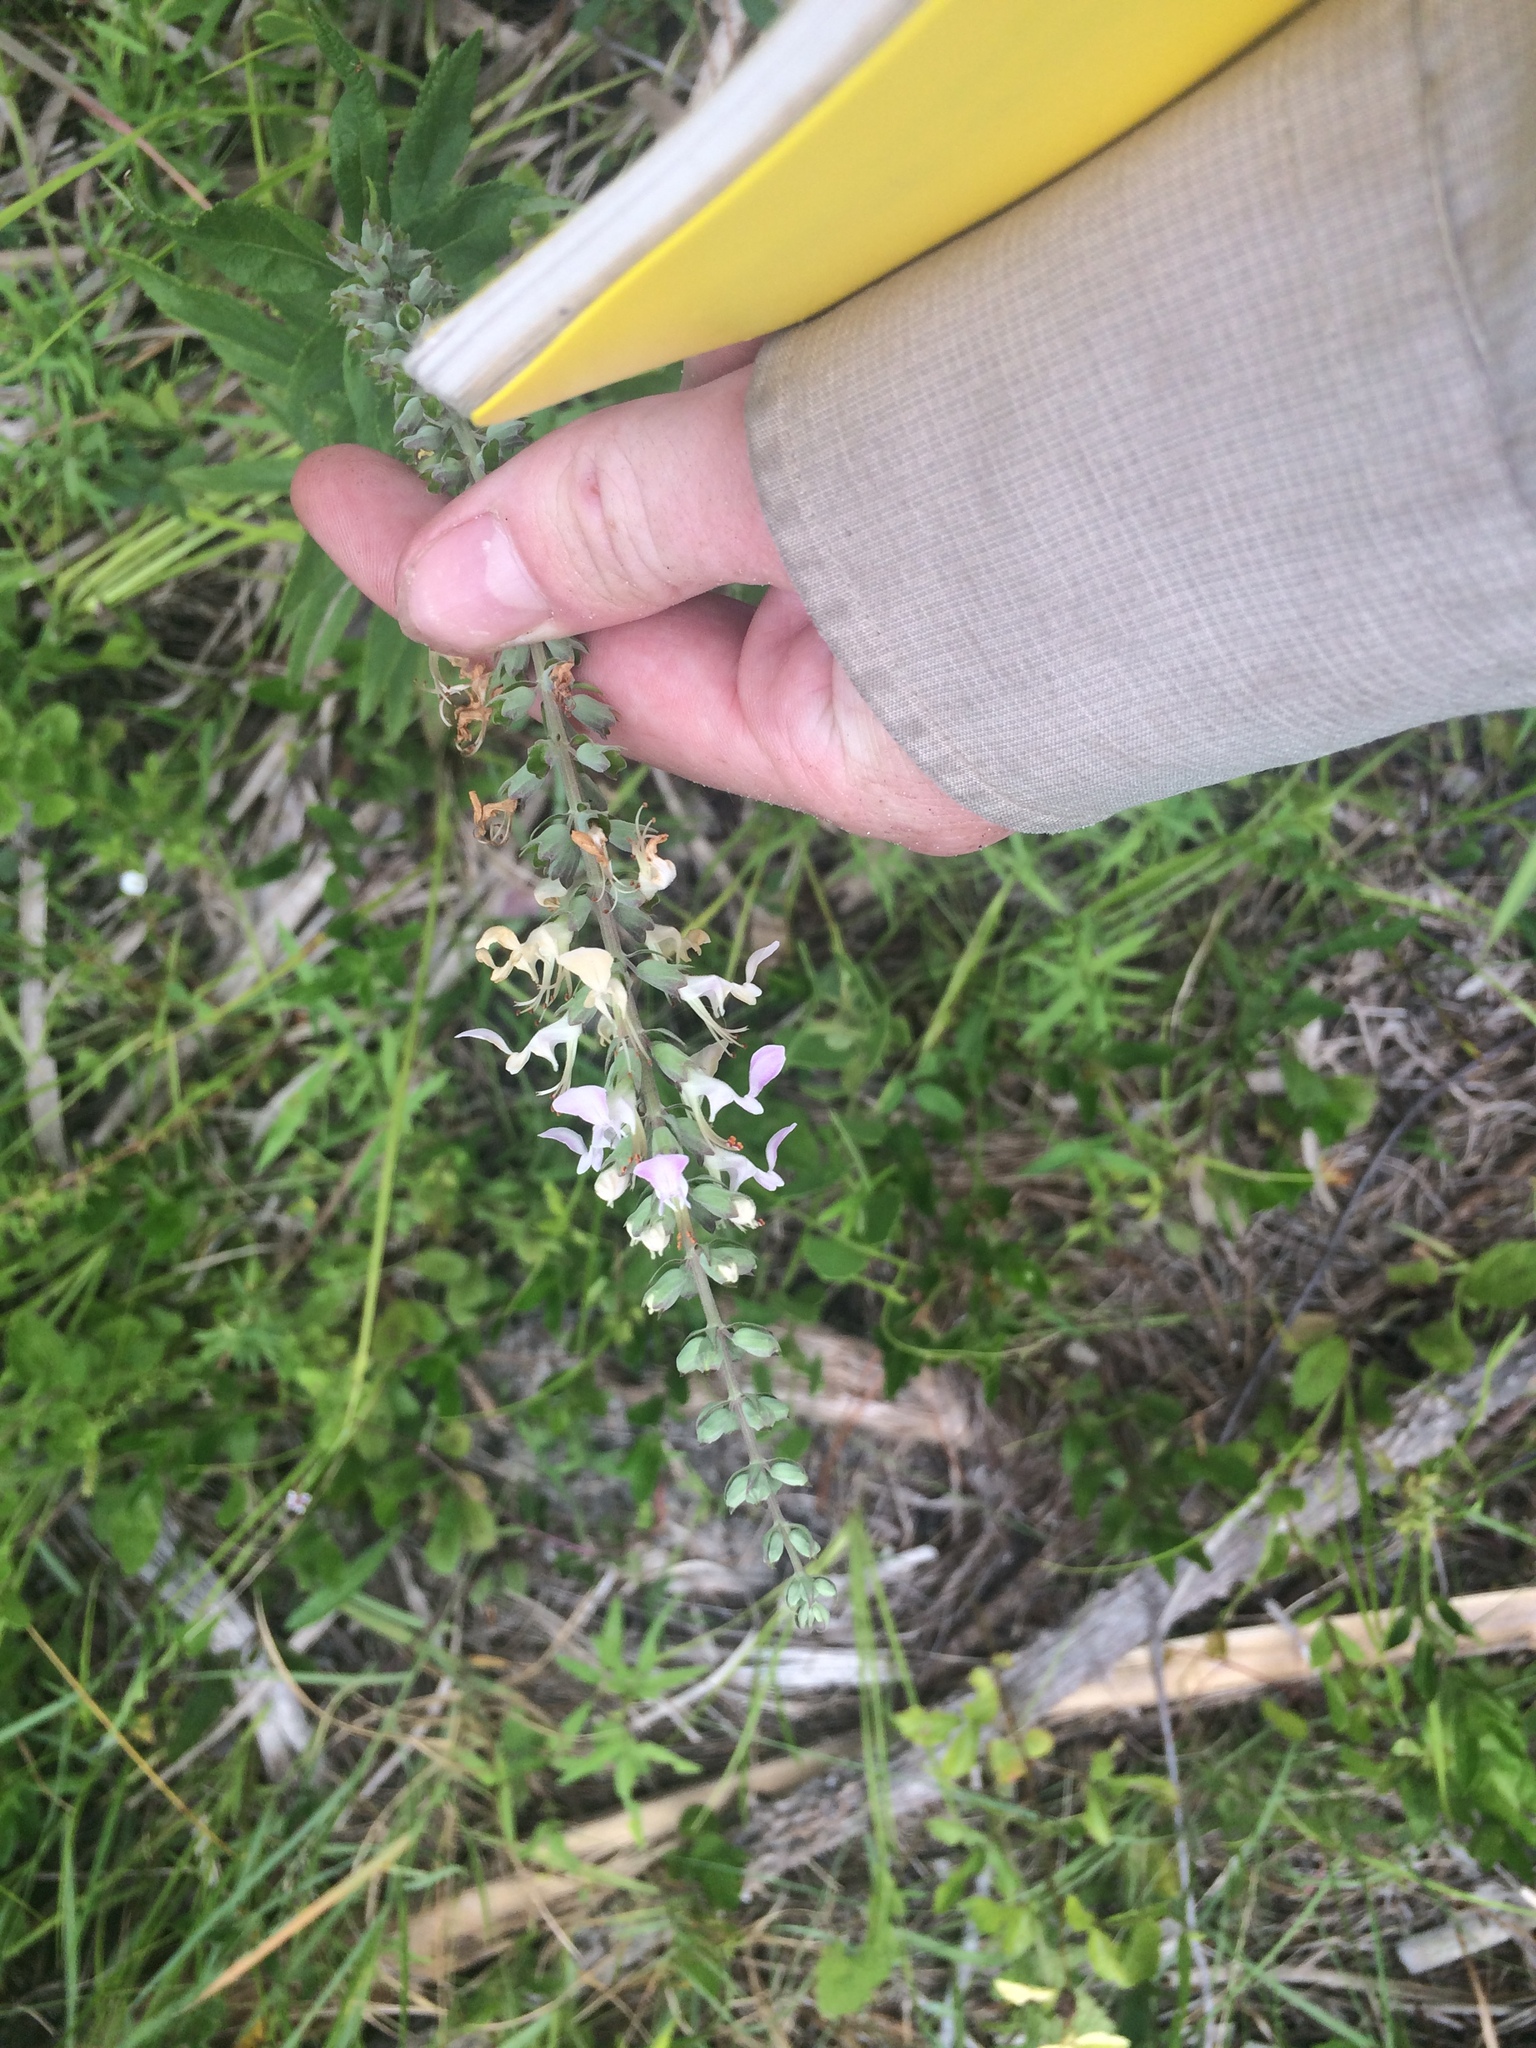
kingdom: Plantae
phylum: Tracheophyta
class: Magnoliopsida
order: Lamiales
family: Lamiaceae
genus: Teucrium
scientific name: Teucrium canadense
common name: American germander
